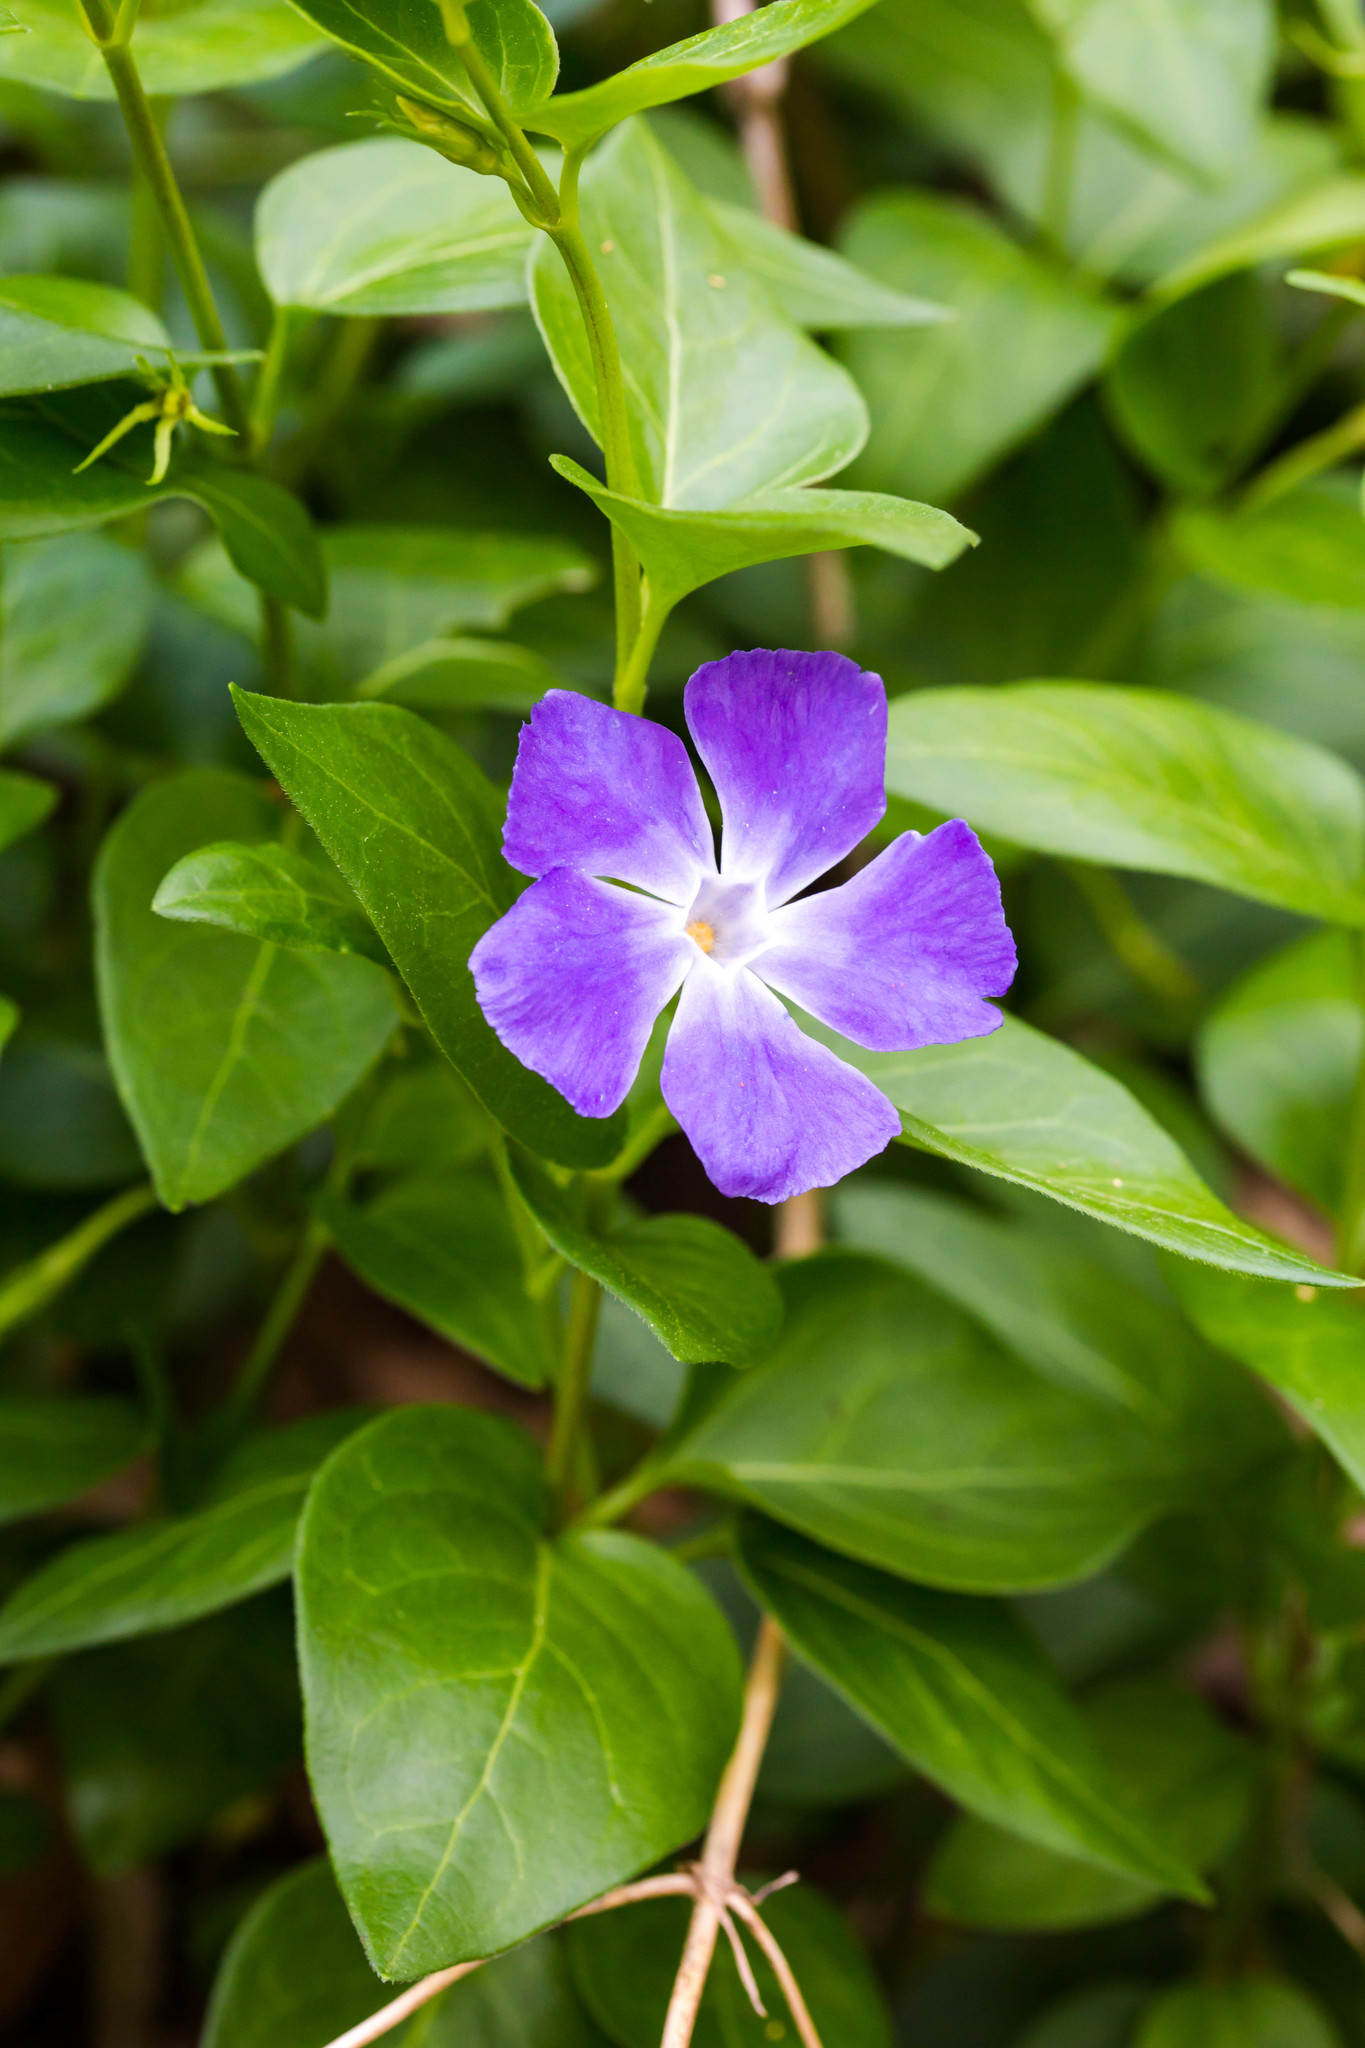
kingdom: Plantae
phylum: Tracheophyta
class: Magnoliopsida
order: Gentianales
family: Apocynaceae
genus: Vinca
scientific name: Vinca major
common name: Greater periwinkle
